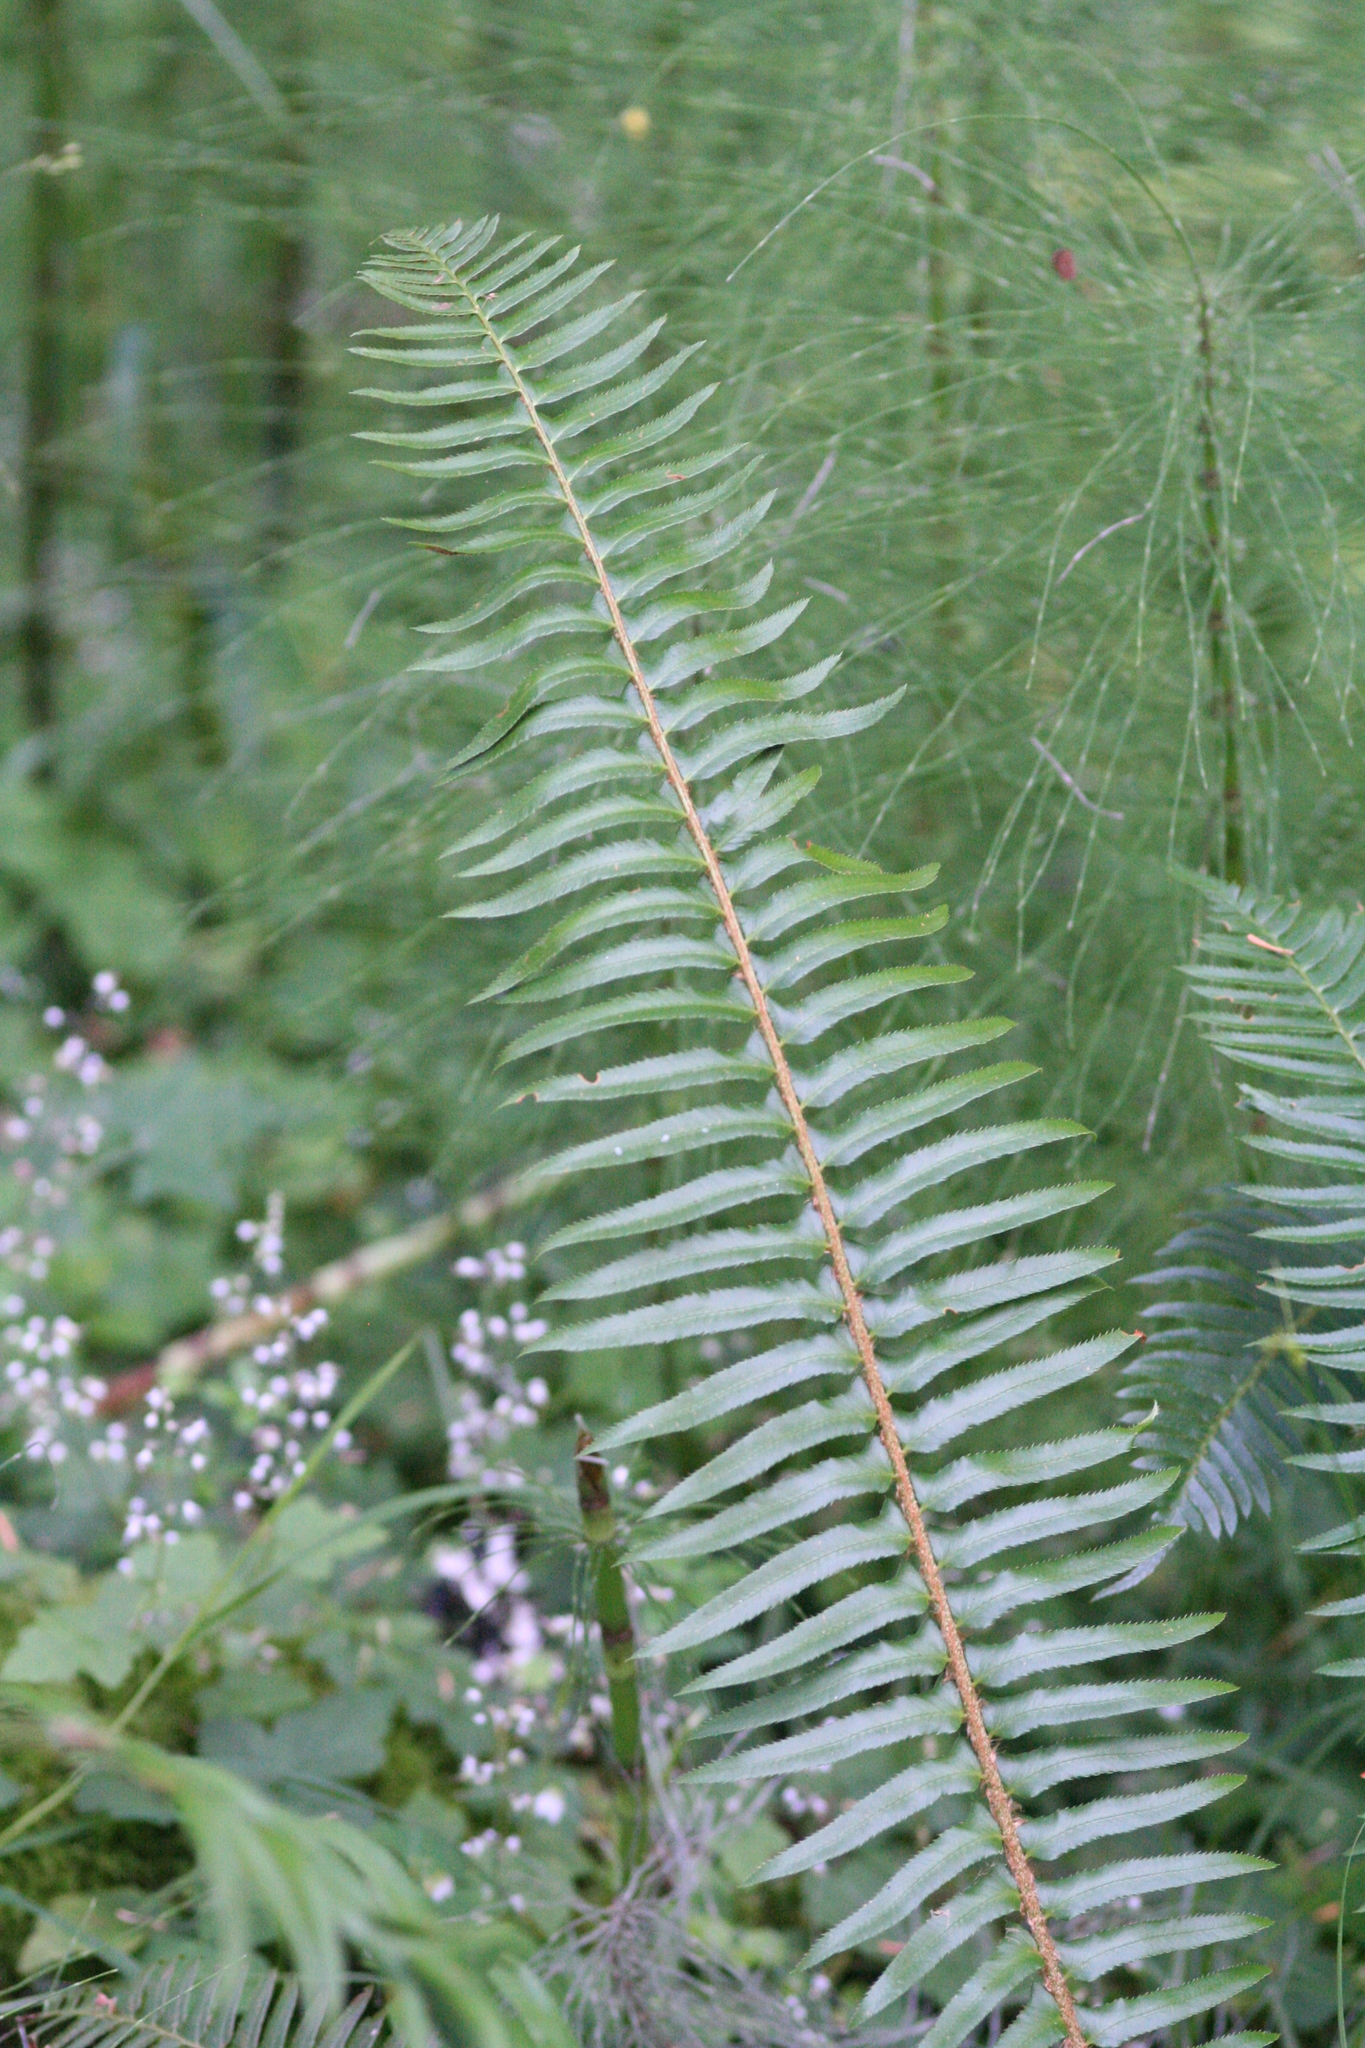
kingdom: Plantae
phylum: Tracheophyta
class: Polypodiopsida
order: Polypodiales
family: Dryopteridaceae
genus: Polystichum
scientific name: Polystichum munitum
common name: Western sword-fern
